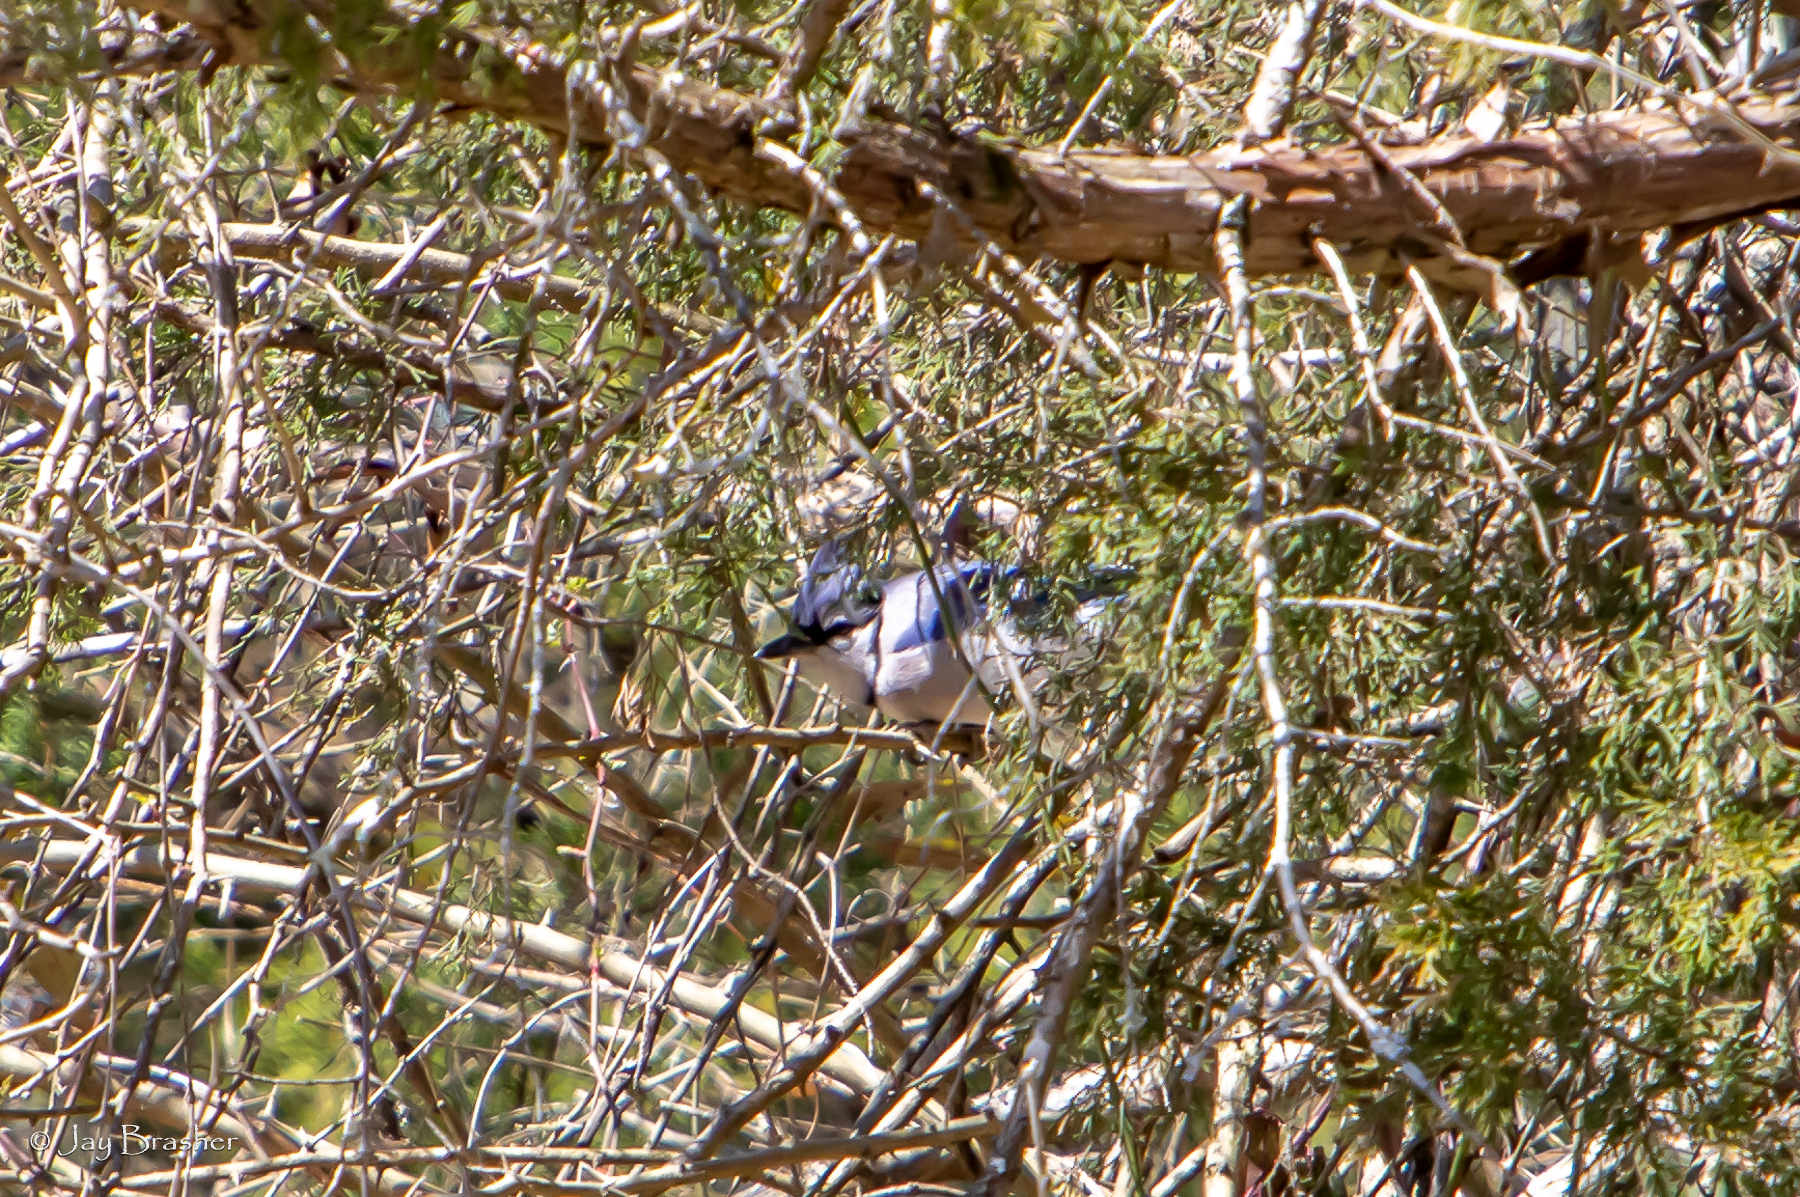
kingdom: Animalia
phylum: Chordata
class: Aves
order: Passeriformes
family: Corvidae
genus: Cyanocitta
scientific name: Cyanocitta cristata
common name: Blue jay
